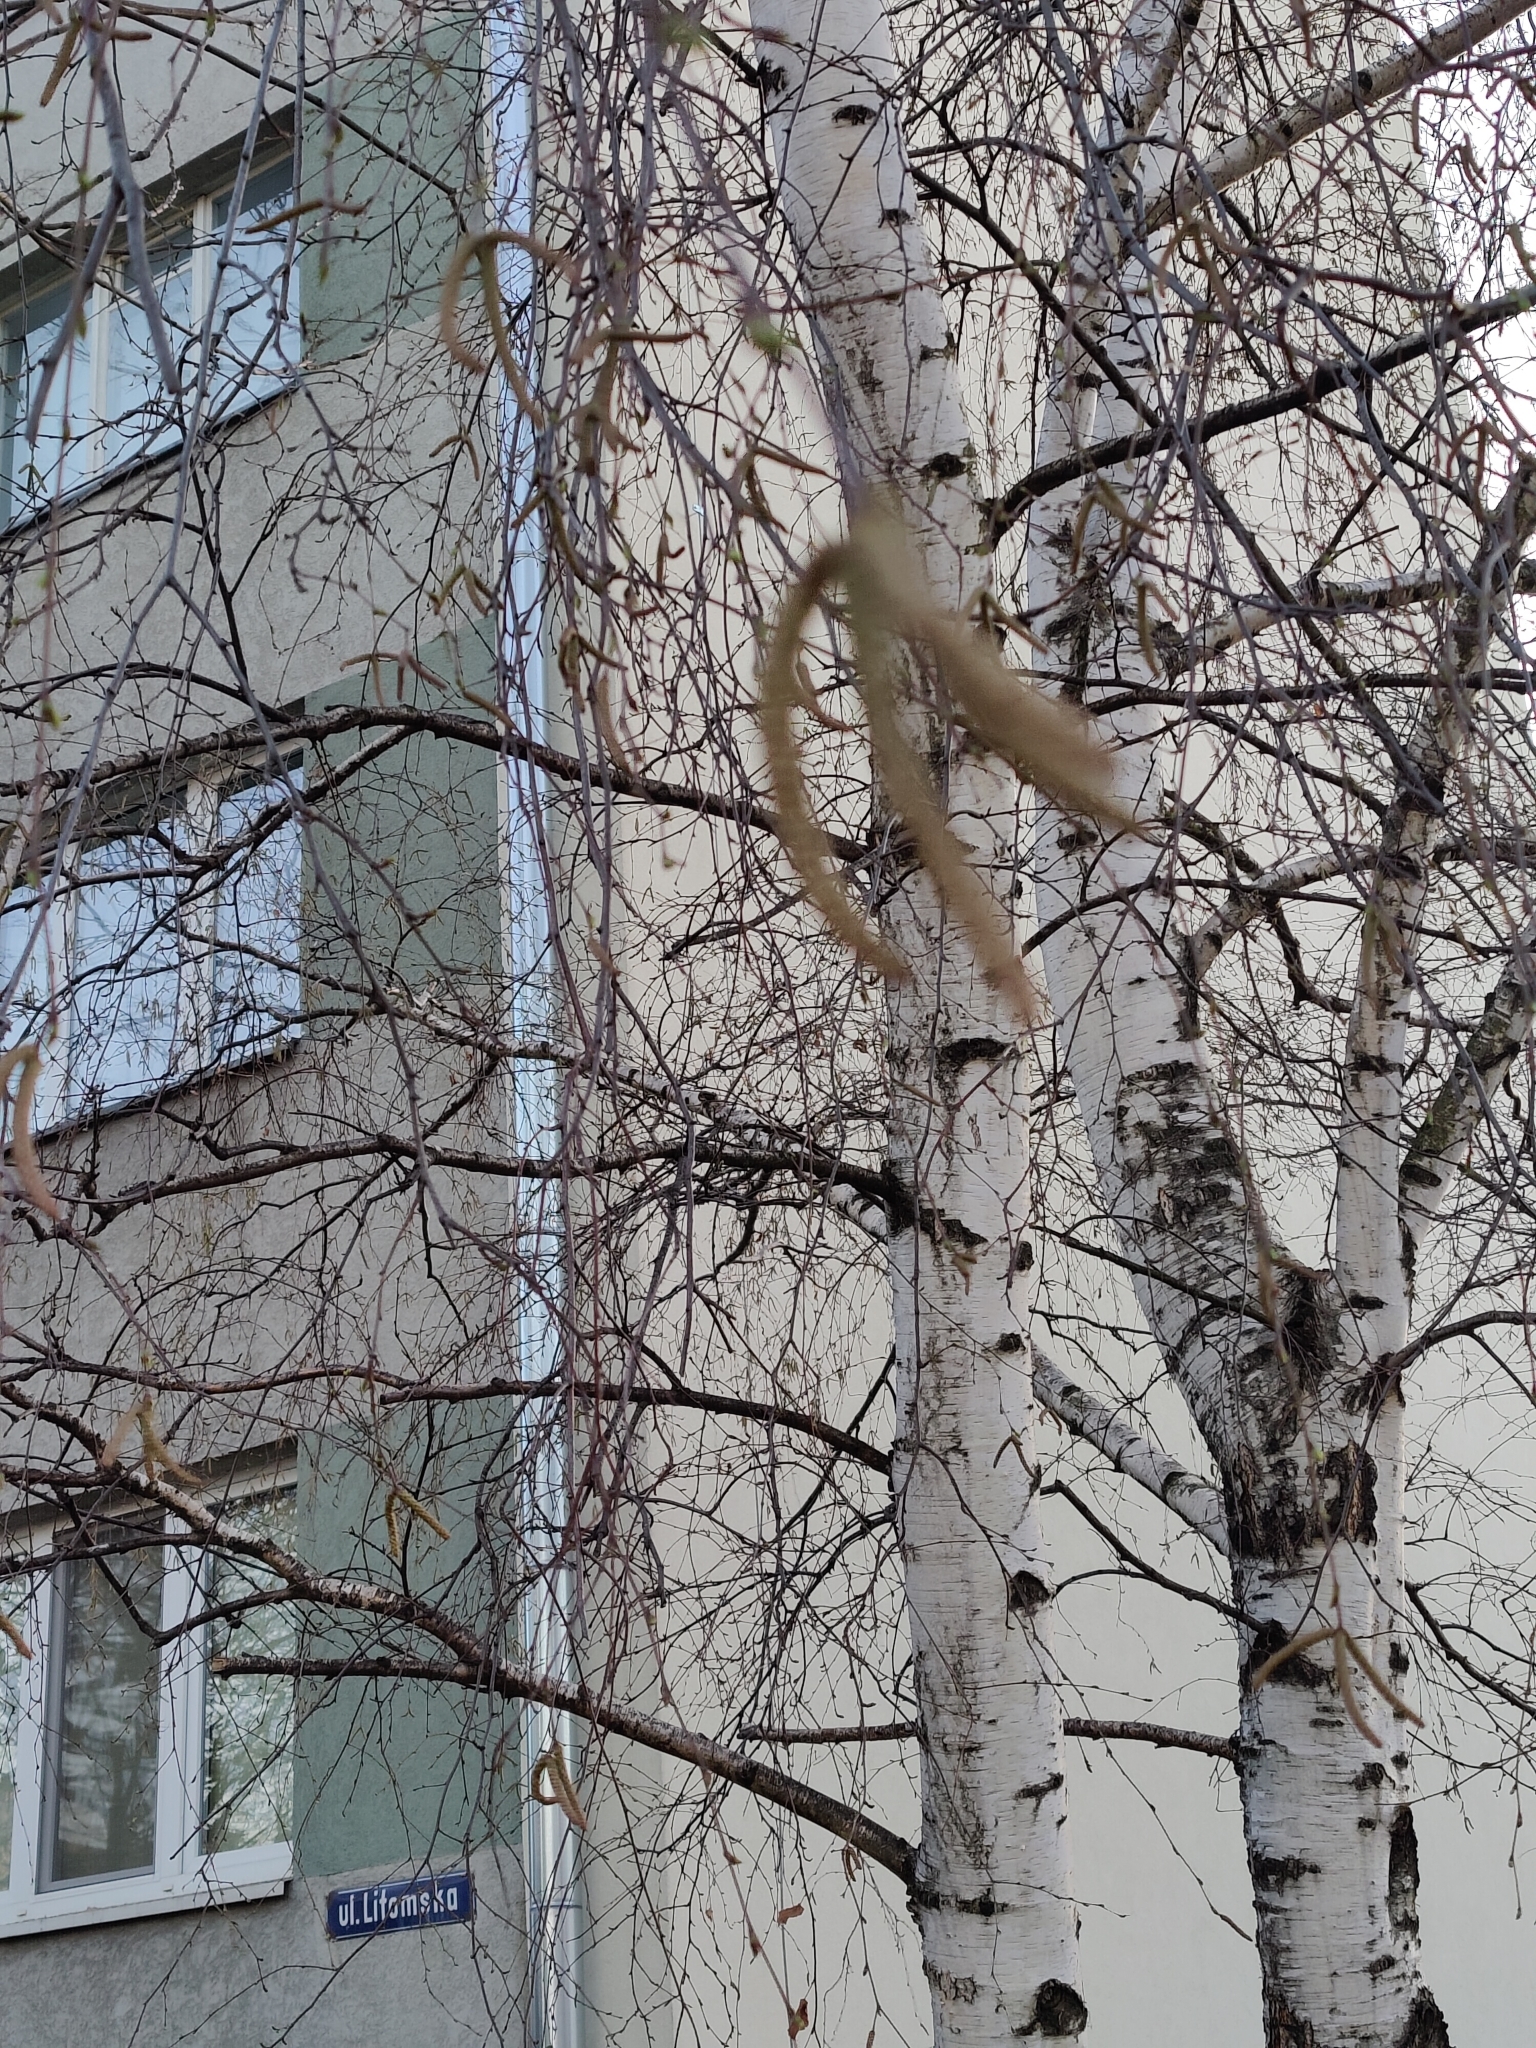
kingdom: Plantae
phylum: Tracheophyta
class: Magnoliopsida
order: Fagales
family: Betulaceae
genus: Betula
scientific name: Betula pendula
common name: Silver birch
